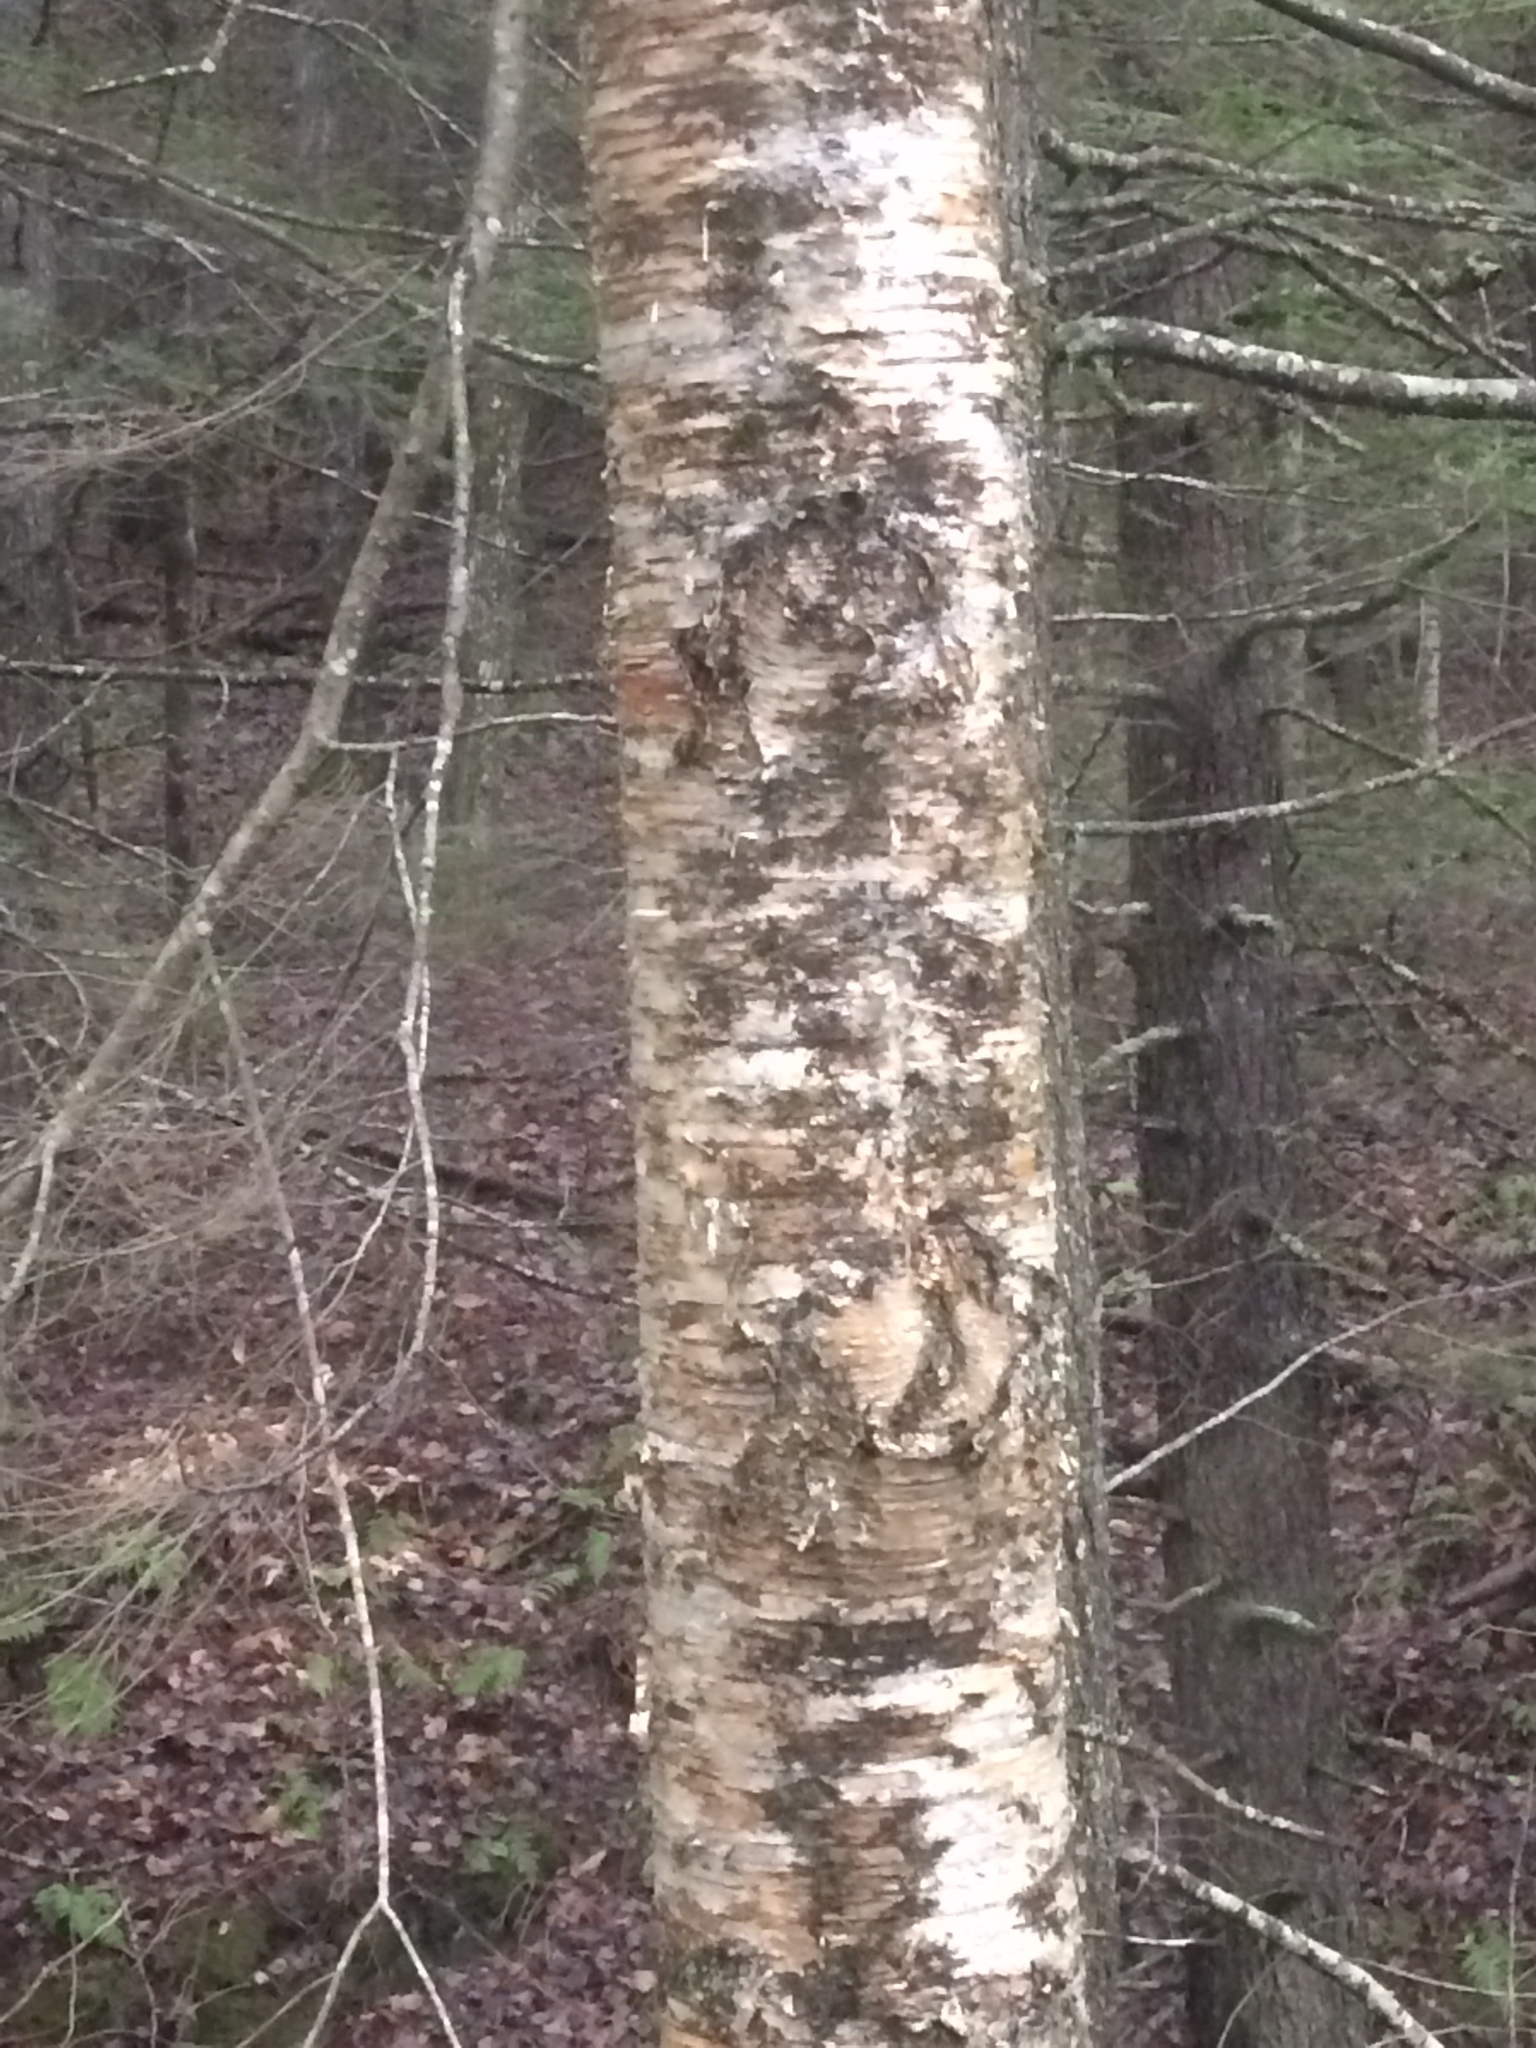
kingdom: Plantae
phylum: Tracheophyta
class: Magnoliopsida
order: Fagales
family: Betulaceae
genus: Betula
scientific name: Betula alleghaniensis
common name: Yellow birch
